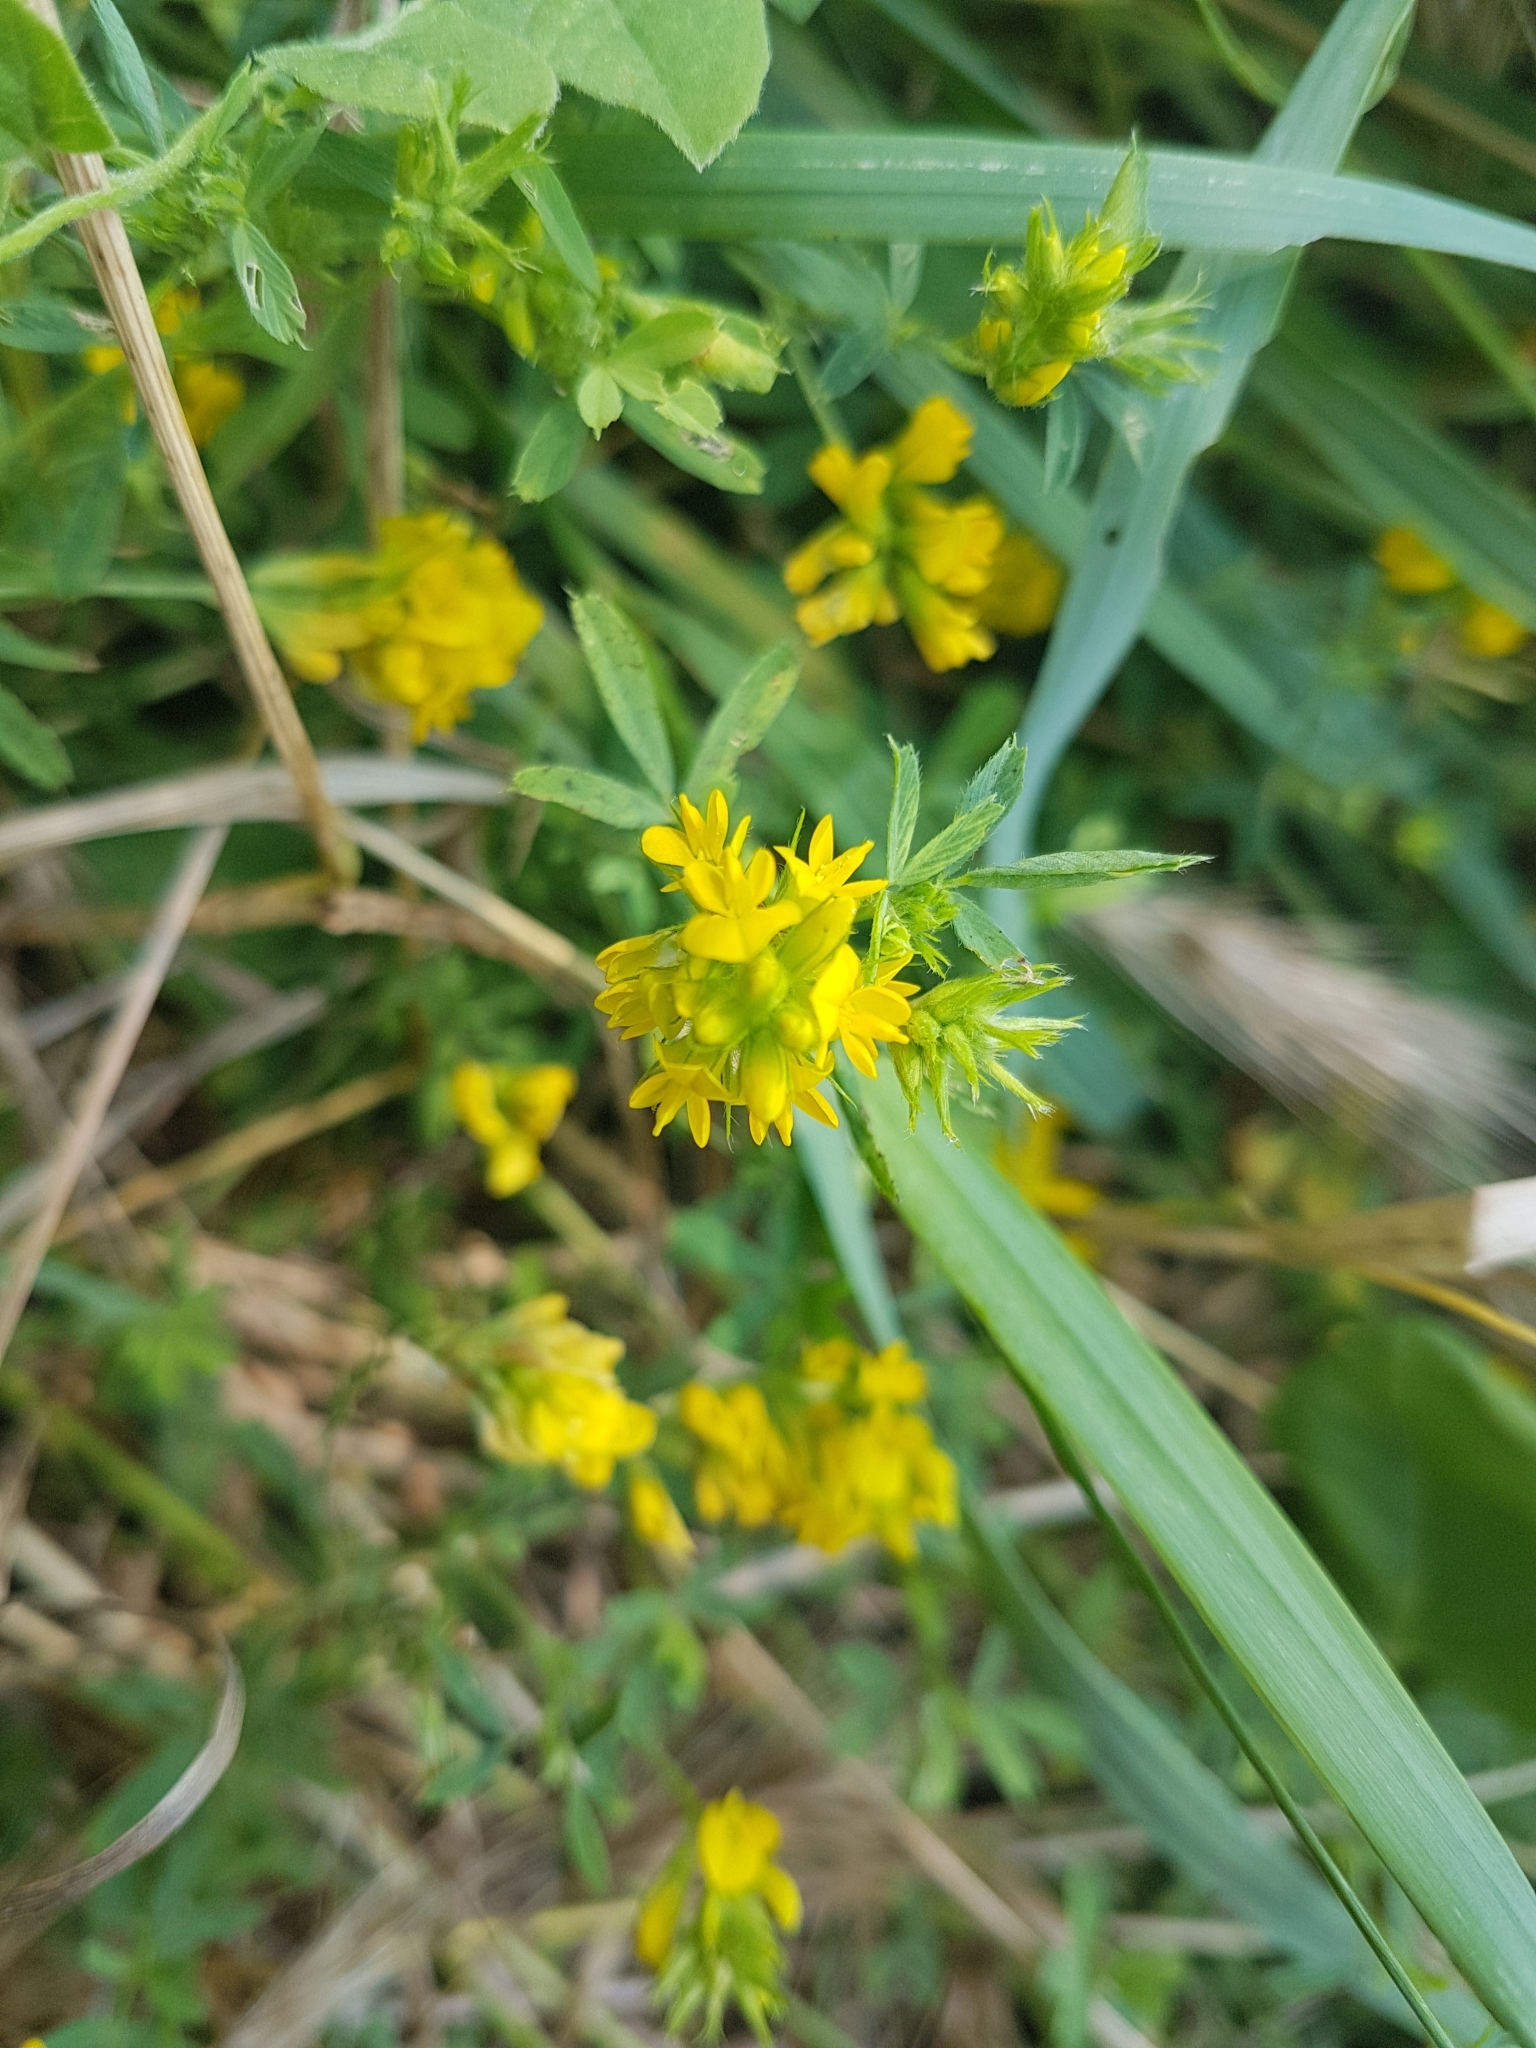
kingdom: Plantae
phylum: Tracheophyta
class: Magnoliopsida
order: Fabales
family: Fabaceae
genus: Medicago
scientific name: Medicago falcata
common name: Sickle medick
